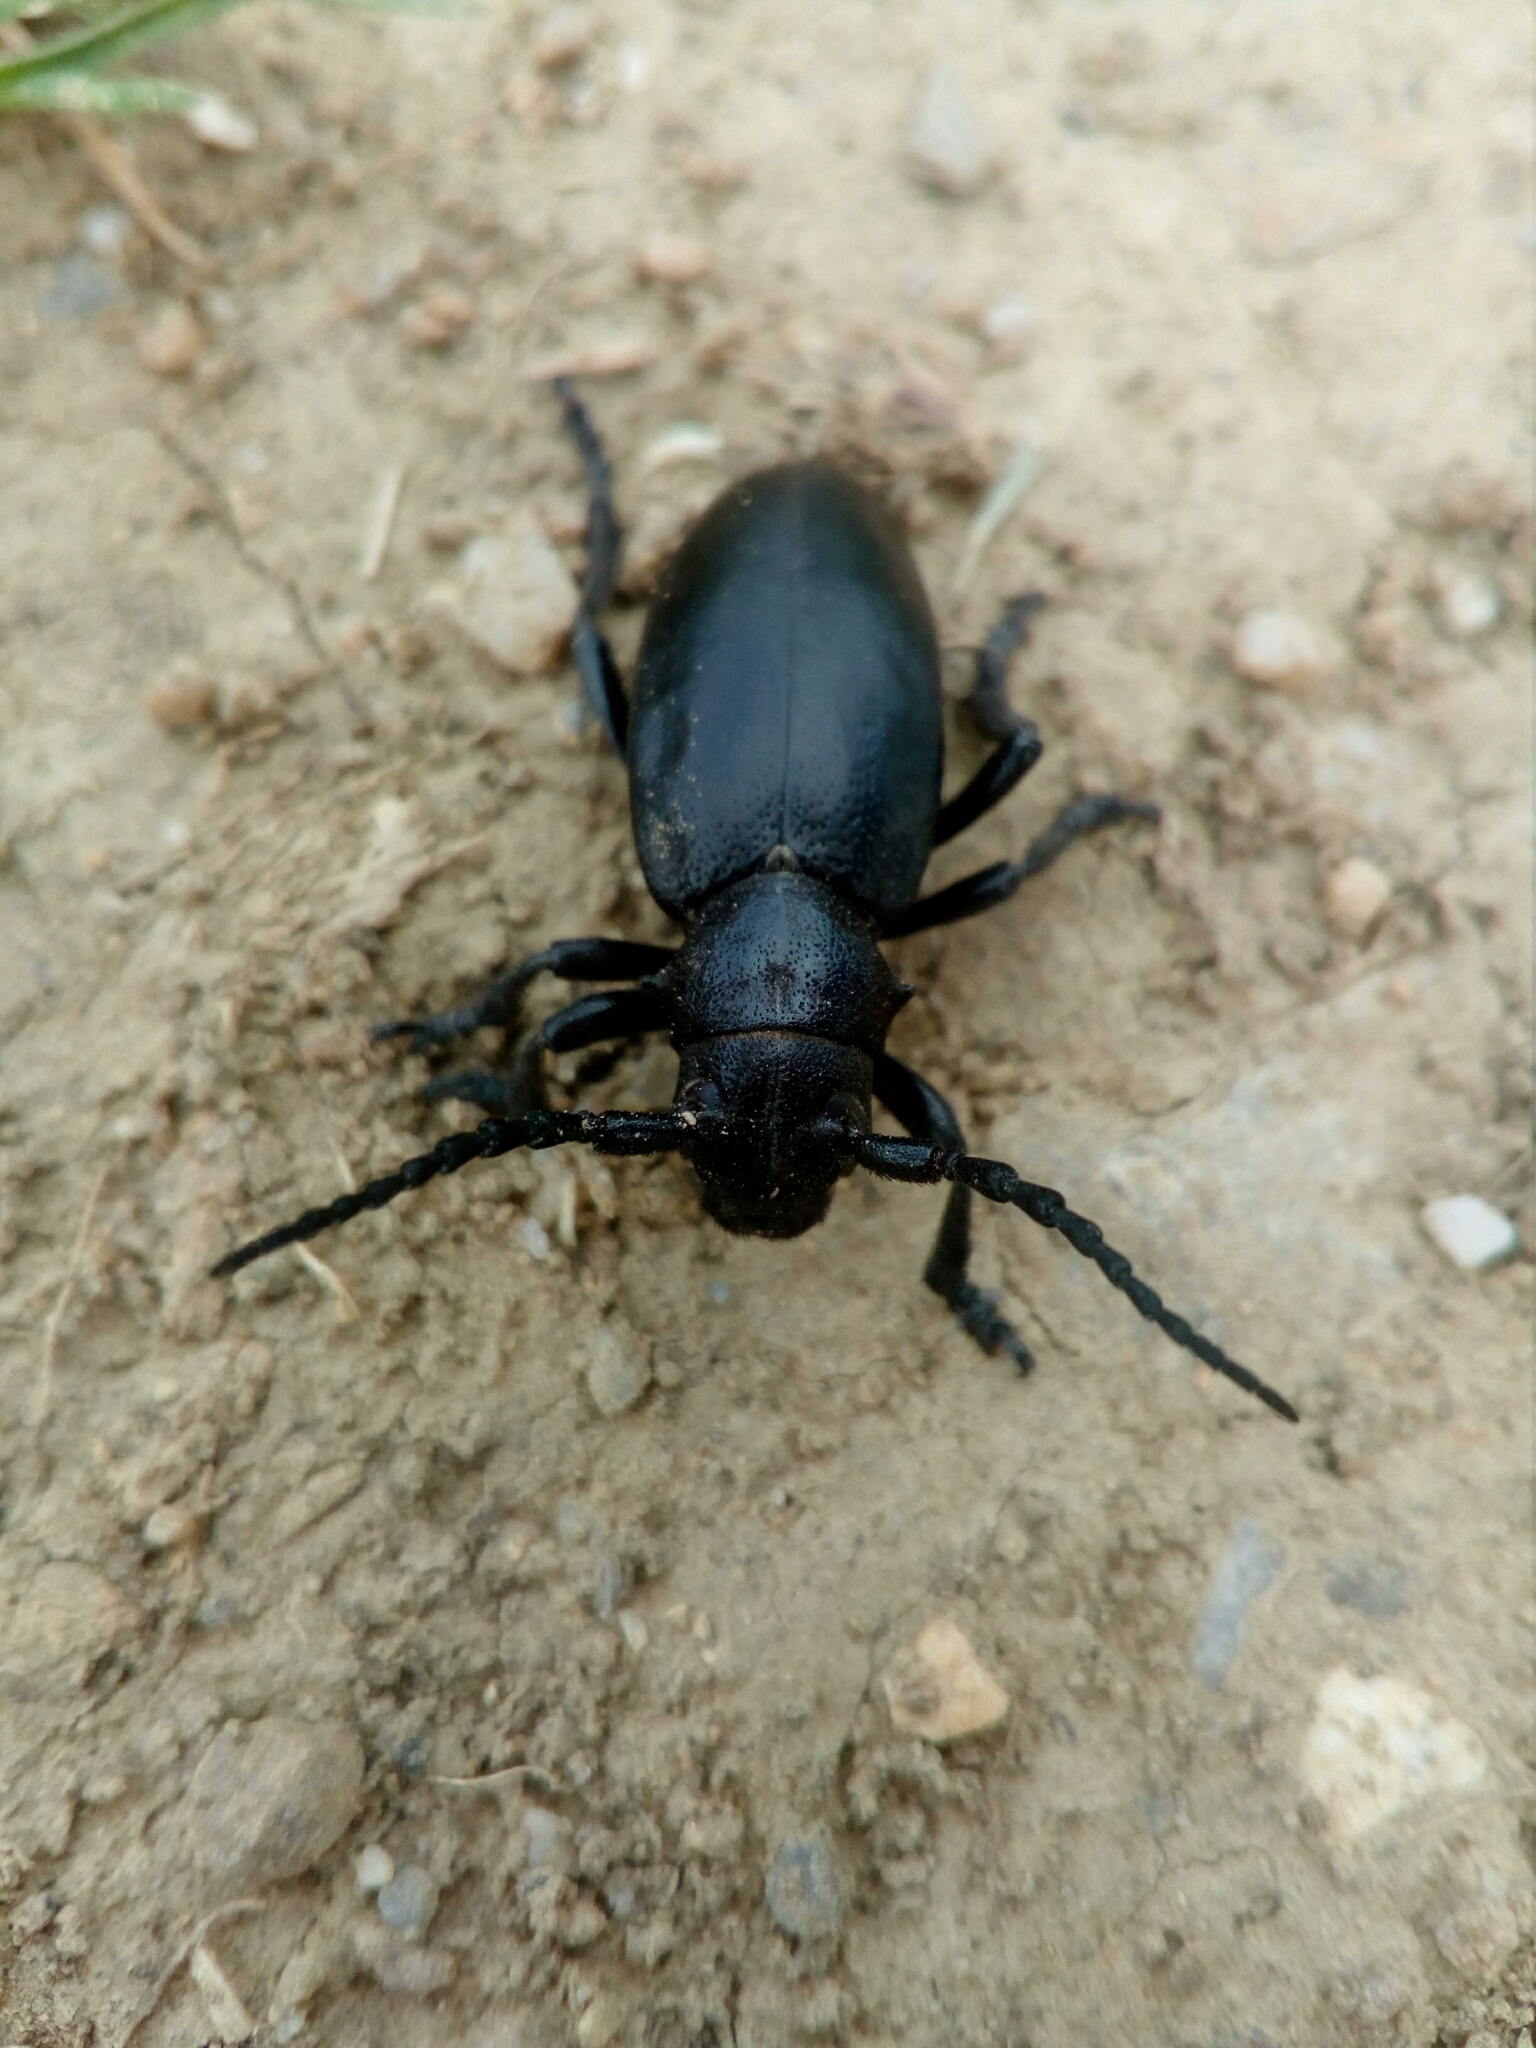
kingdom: Animalia
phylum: Arthropoda
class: Insecta
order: Coleoptera
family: Cerambycidae
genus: Dorcadion
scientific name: Dorcadion aethiops
